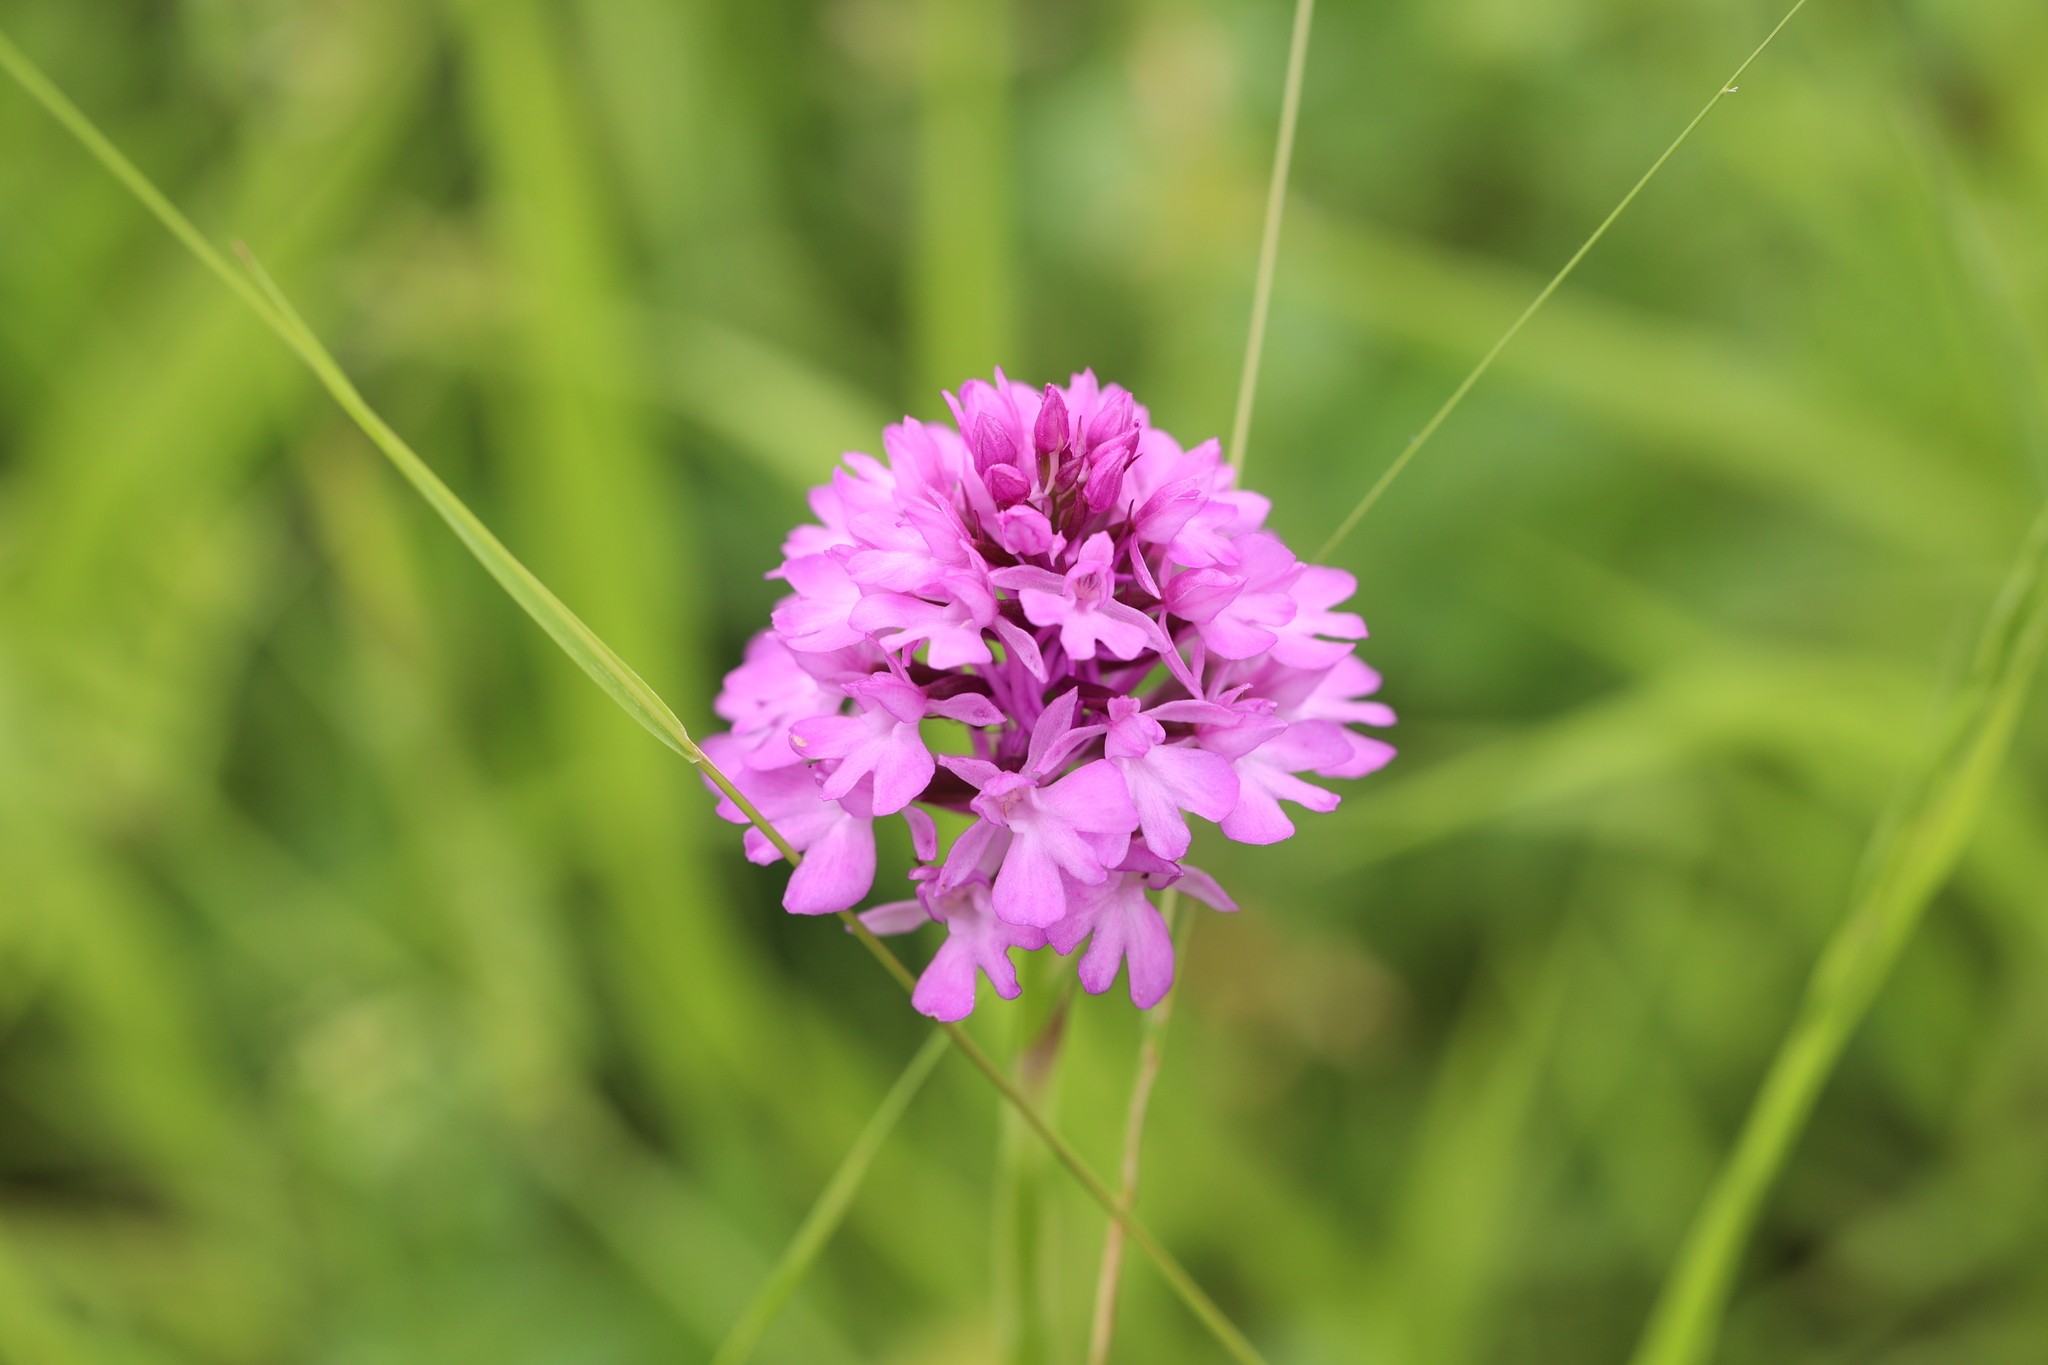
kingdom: Plantae
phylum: Tracheophyta
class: Liliopsida
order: Asparagales
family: Orchidaceae
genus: Anacamptis
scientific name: Anacamptis pyramidalis
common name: Pyramidal orchid
